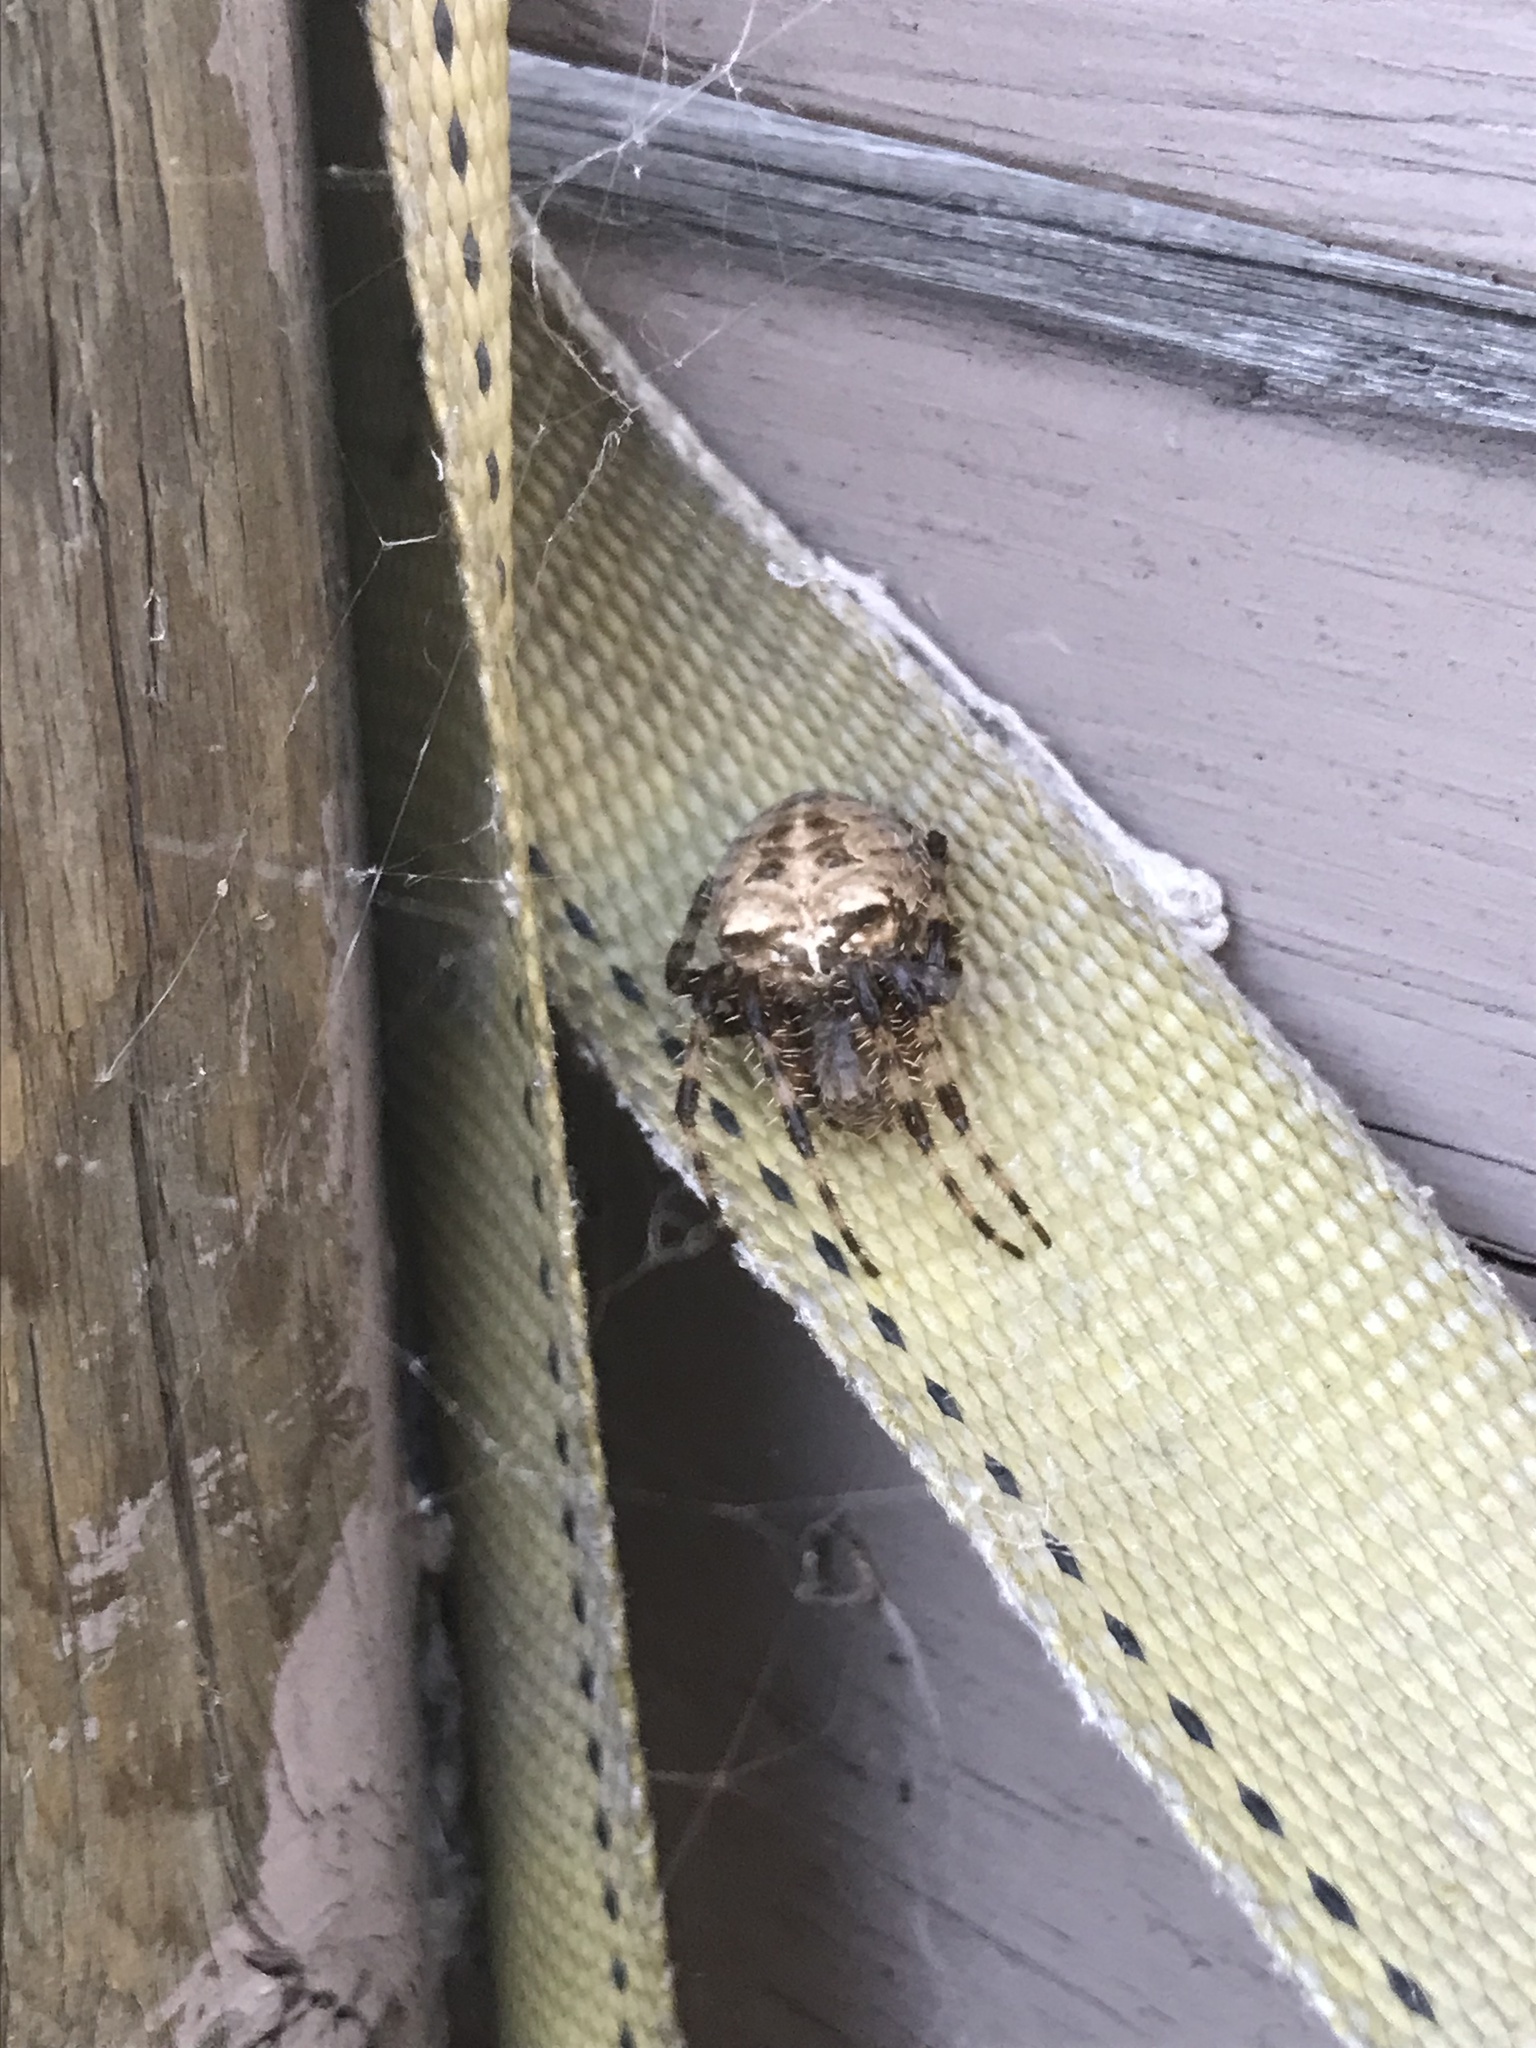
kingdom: Animalia
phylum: Arthropoda
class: Arachnida
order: Araneae
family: Araneidae
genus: Araneus
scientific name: Araneus gemmoides
